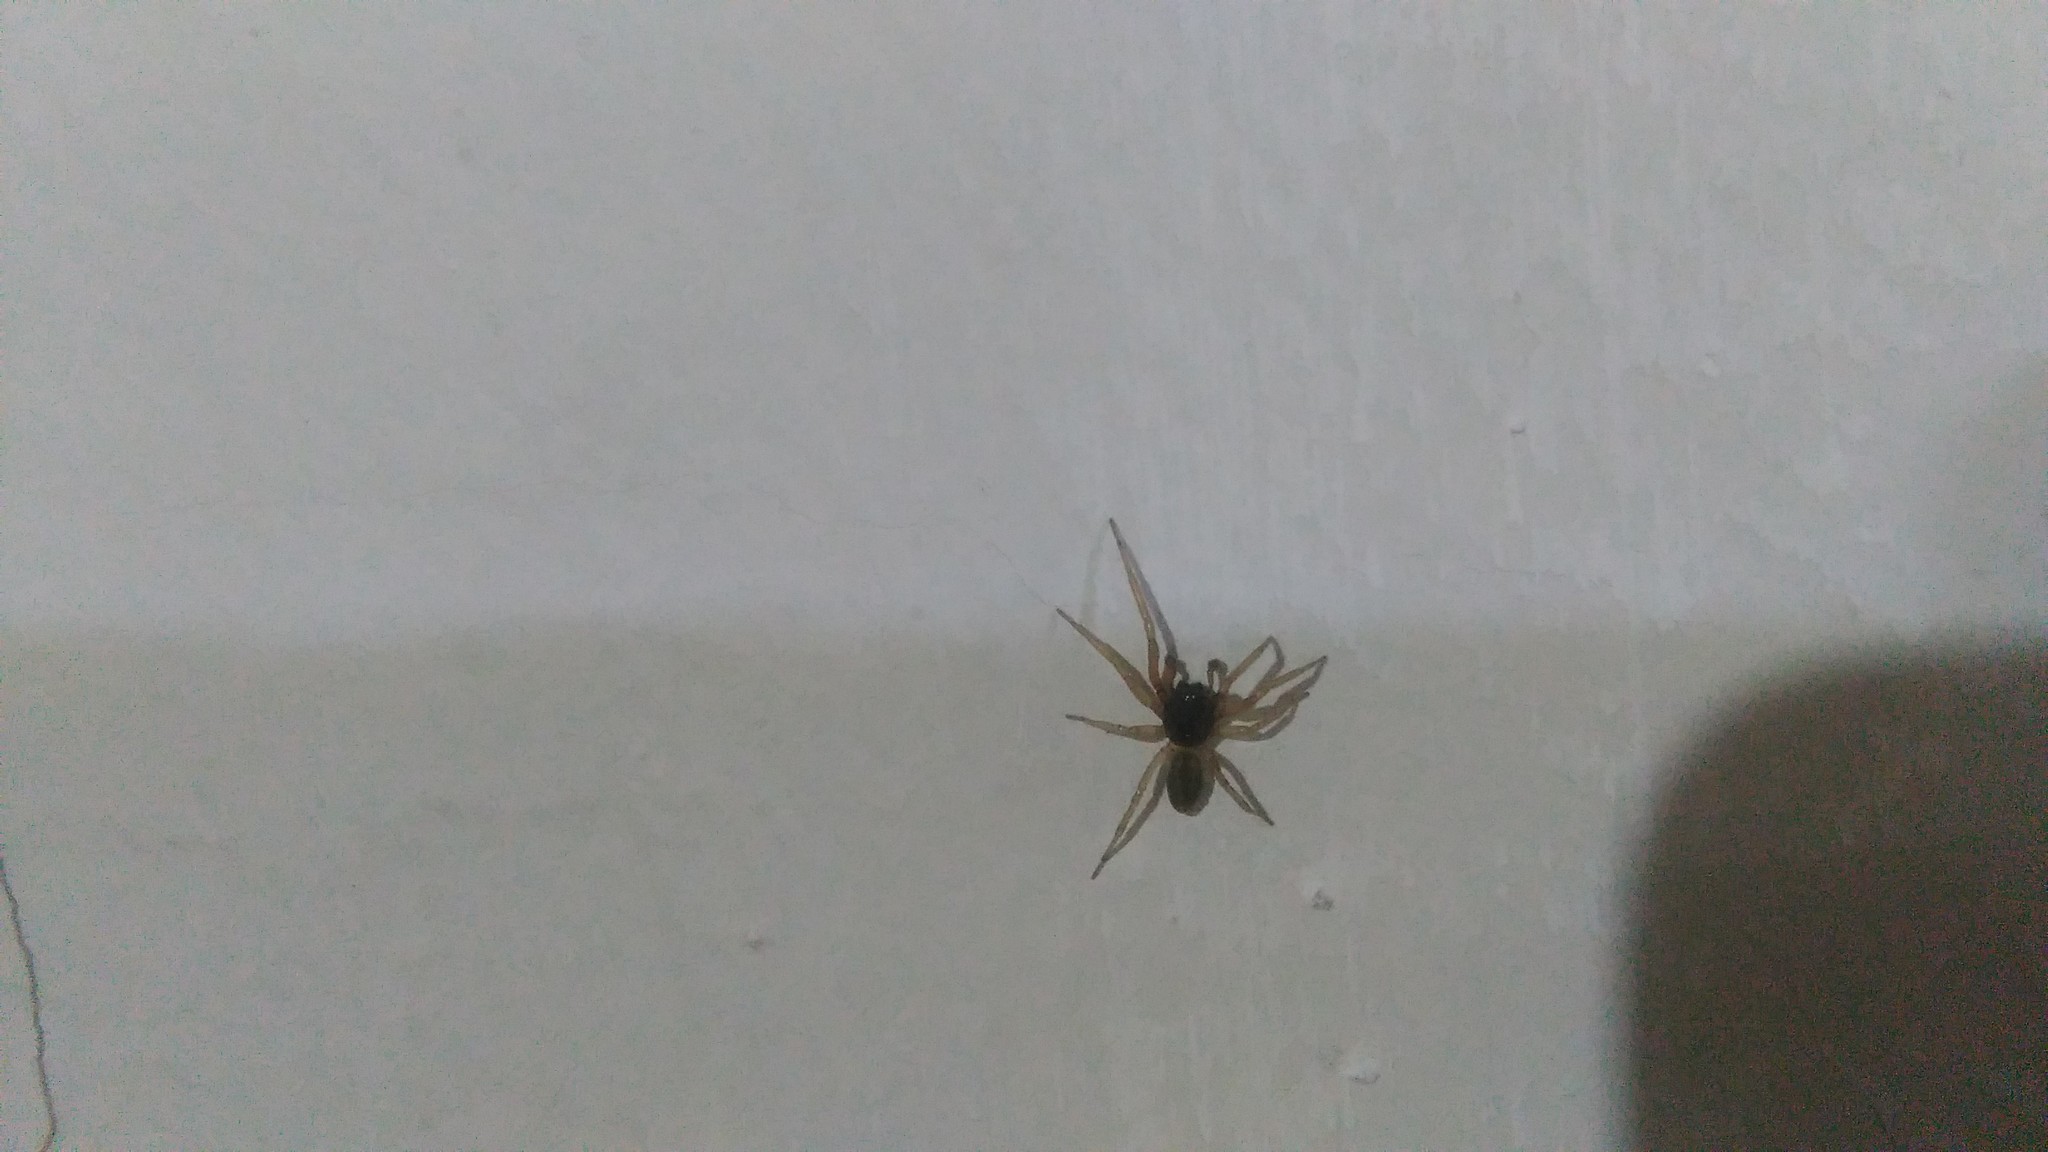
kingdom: Animalia
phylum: Arthropoda
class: Arachnida
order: Araneae
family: Trachelidae
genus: Meriola
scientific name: Meriola
